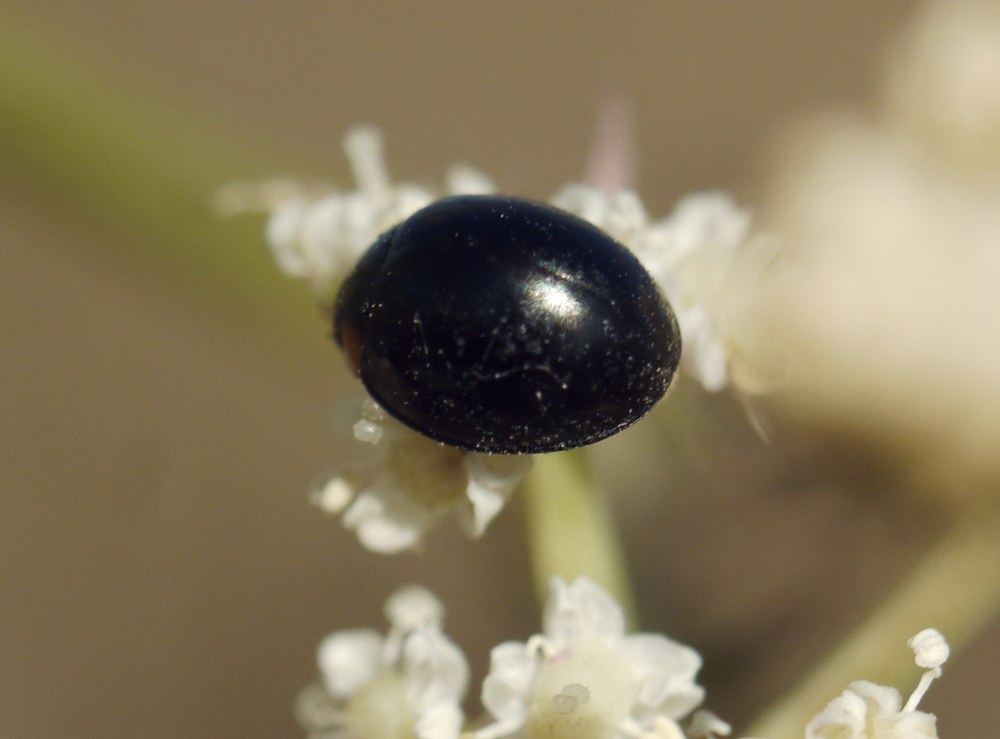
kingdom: Animalia
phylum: Arthropoda
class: Insecta
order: Coleoptera
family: Coccinellidae
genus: Parexochomus
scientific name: Parexochomus nigromaculatus
